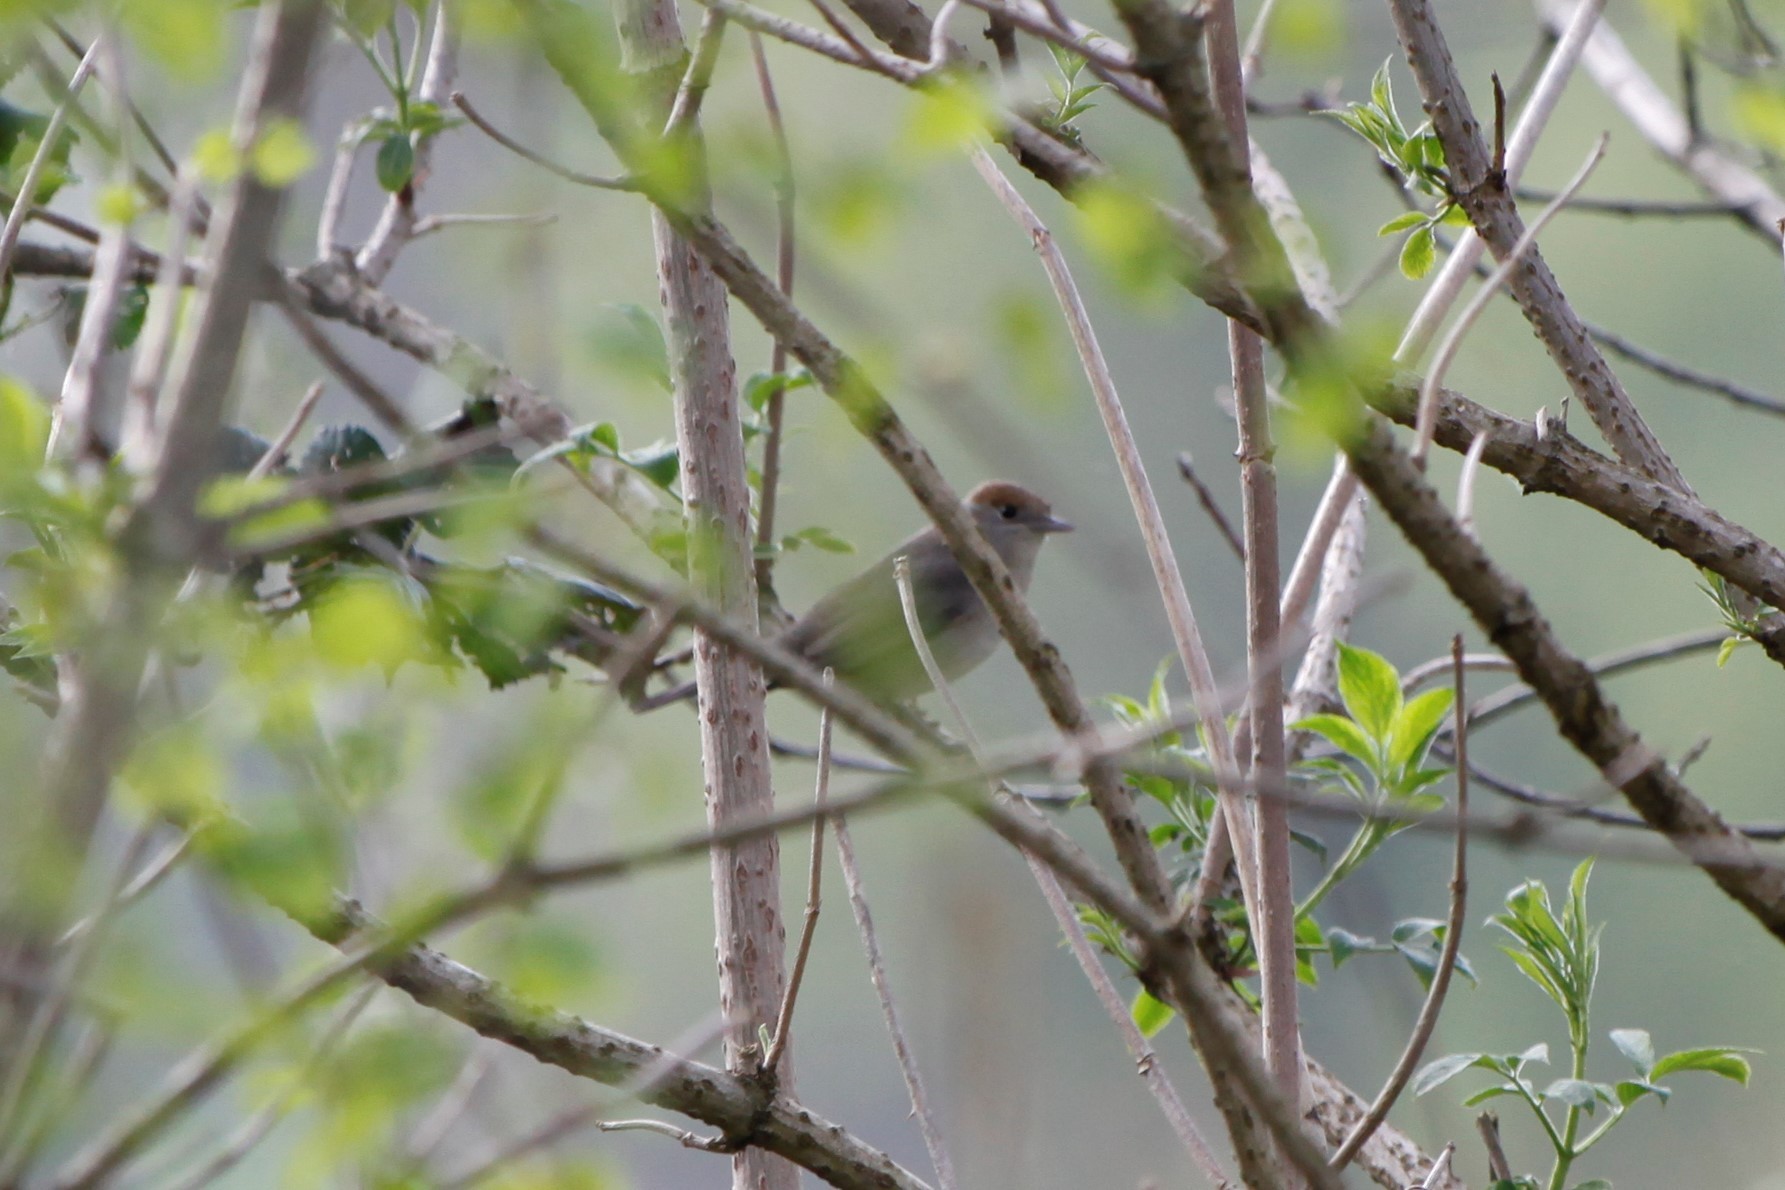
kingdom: Animalia
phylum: Chordata
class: Aves
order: Passeriformes
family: Sylviidae
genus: Sylvia
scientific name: Sylvia atricapilla
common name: Eurasian blackcap
